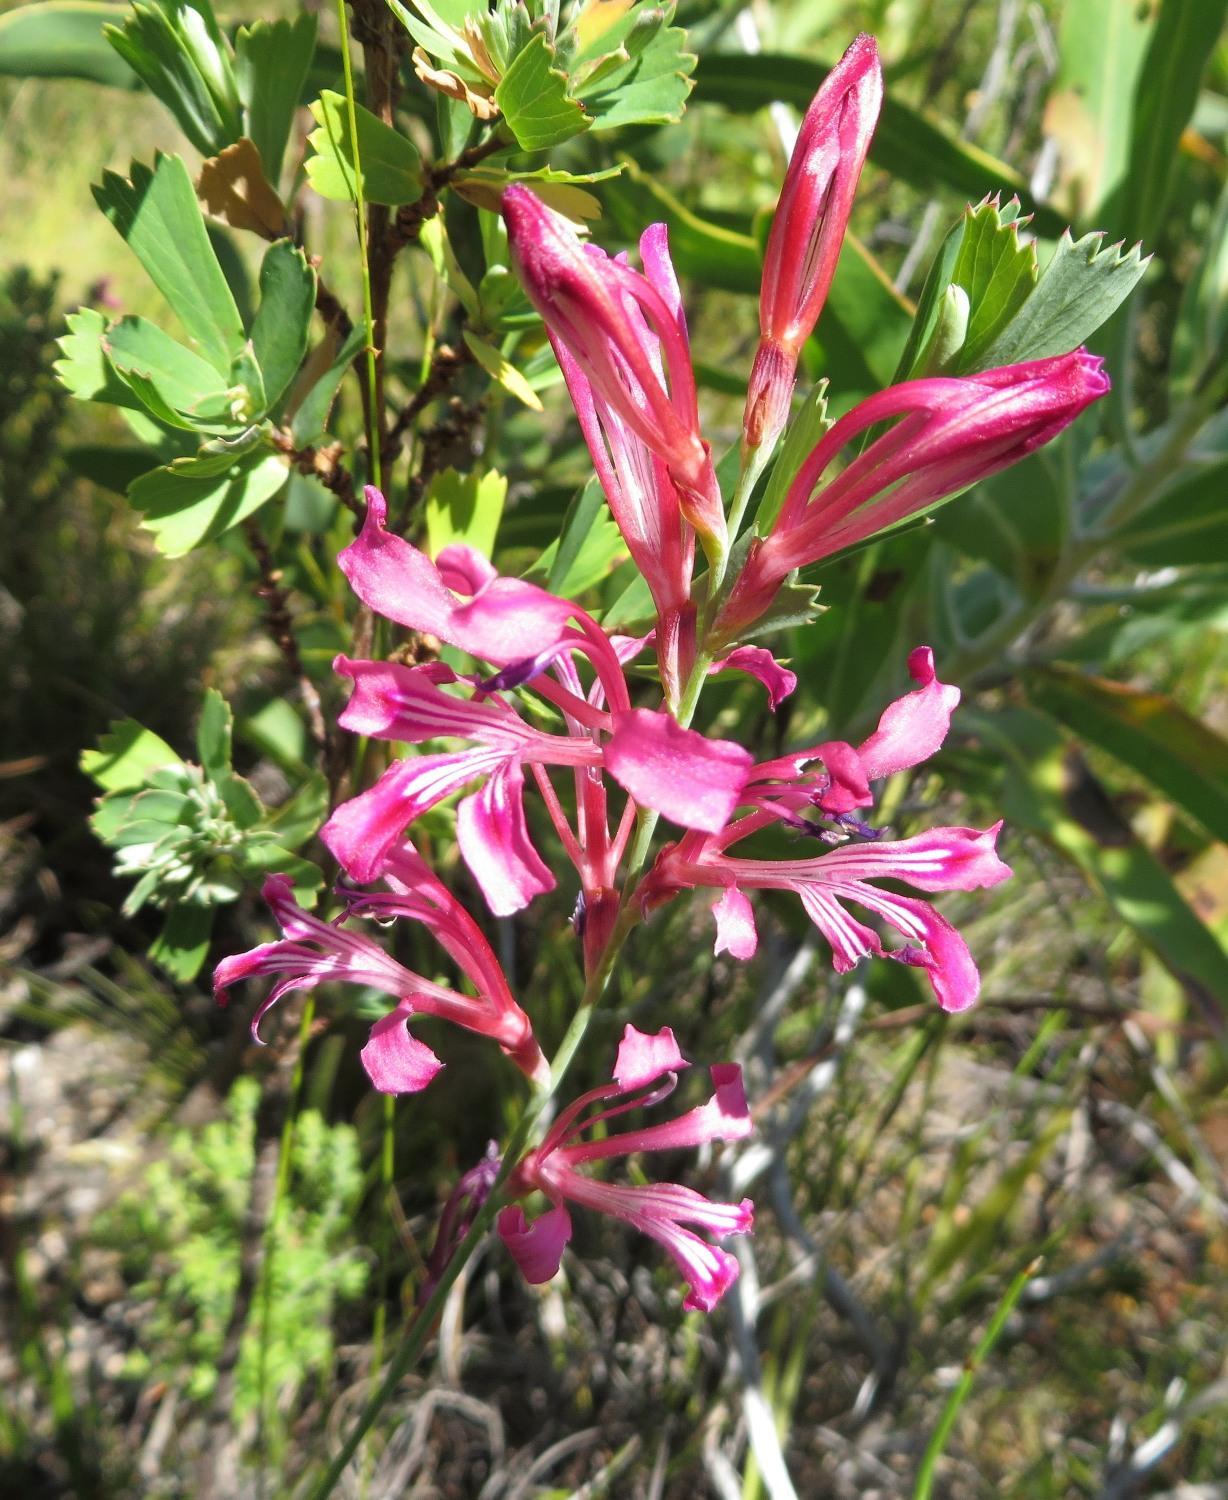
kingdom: Plantae
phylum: Tracheophyta
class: Liliopsida
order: Asparagales
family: Iridaceae
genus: Tritoniopsis
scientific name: Tritoniopsis lata
